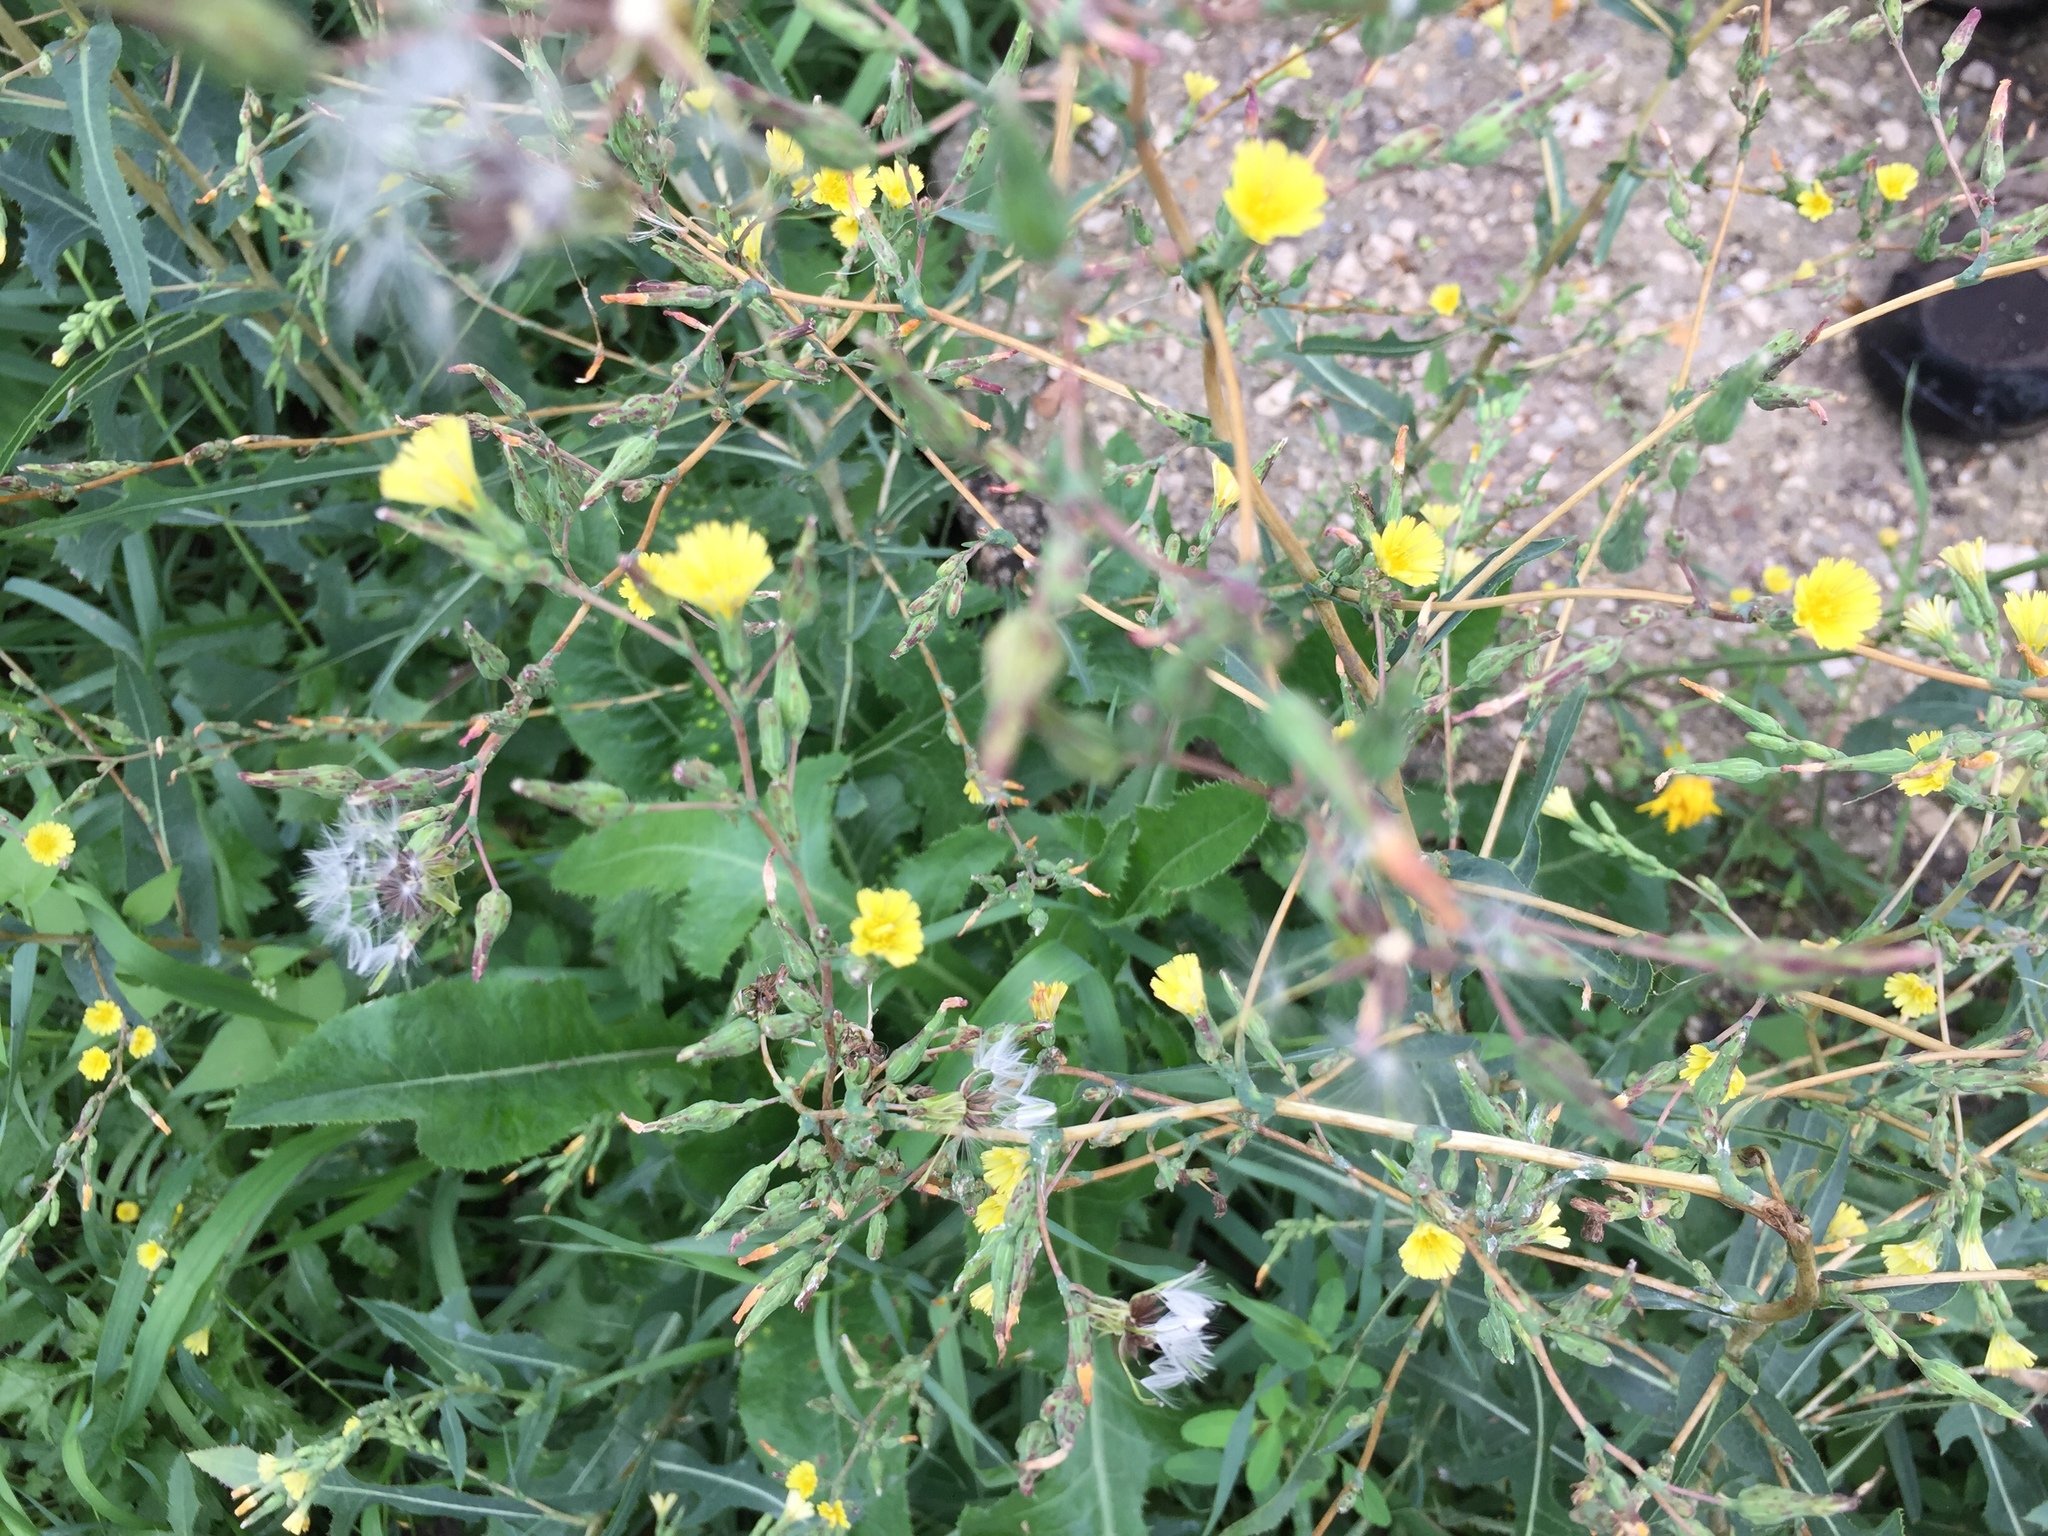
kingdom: Plantae
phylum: Tracheophyta
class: Magnoliopsida
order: Asterales
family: Asteraceae
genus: Lactuca
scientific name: Lactuca serriola
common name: Prickly lettuce
